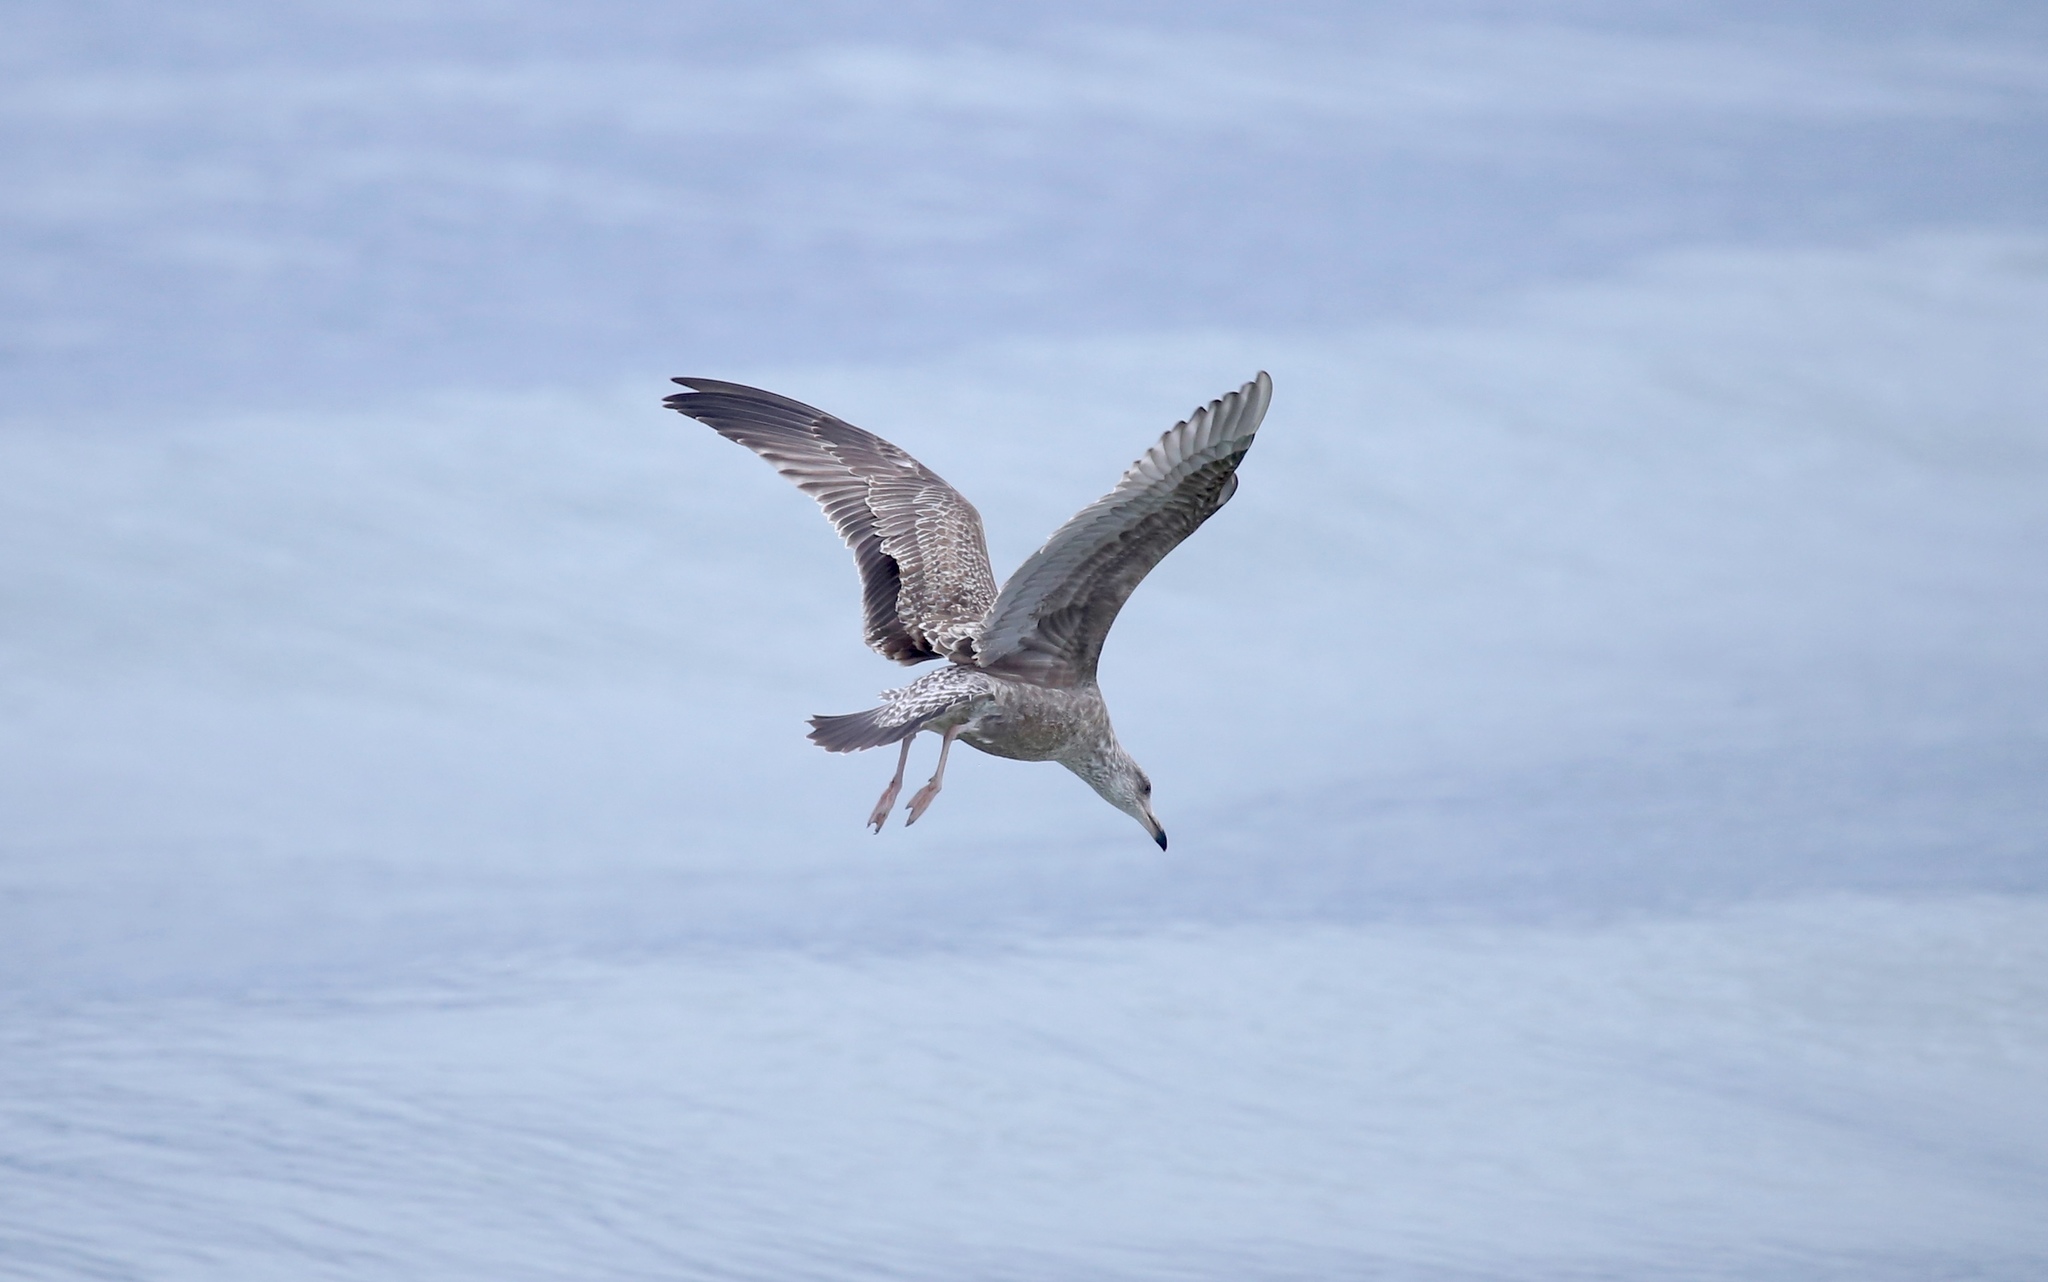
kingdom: Animalia
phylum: Chordata
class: Aves
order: Charadriiformes
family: Laridae
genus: Larus
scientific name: Larus argentatus
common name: Herring gull
